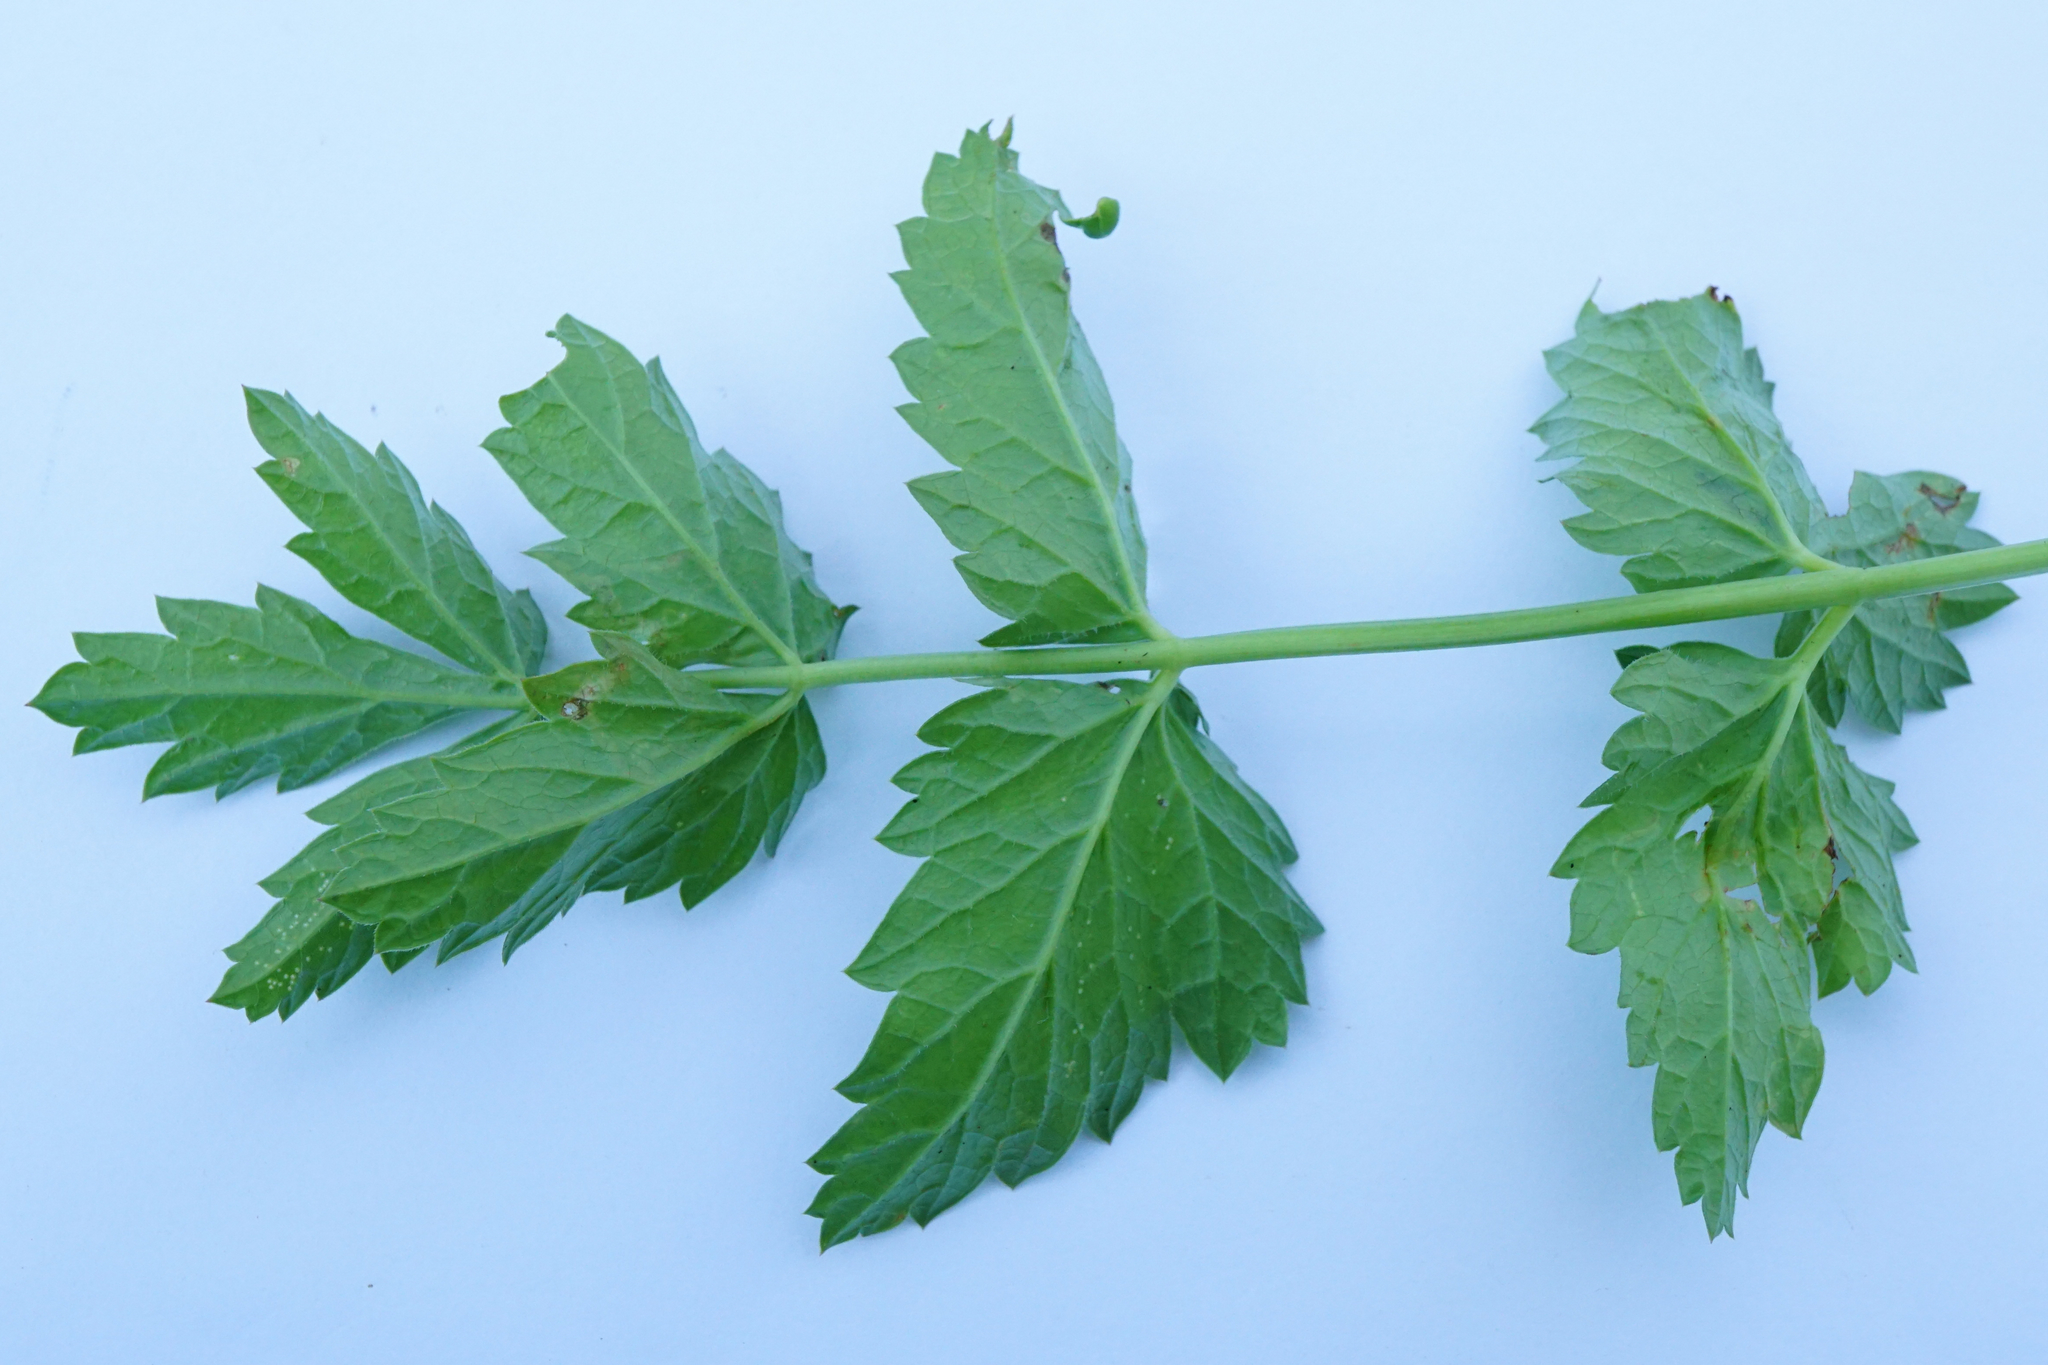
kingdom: Plantae
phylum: Tracheophyta
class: Magnoliopsida
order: Apiales
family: Apiaceae
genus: Pimpinella
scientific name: Pimpinella major
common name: Greater burnet-saxifrage
